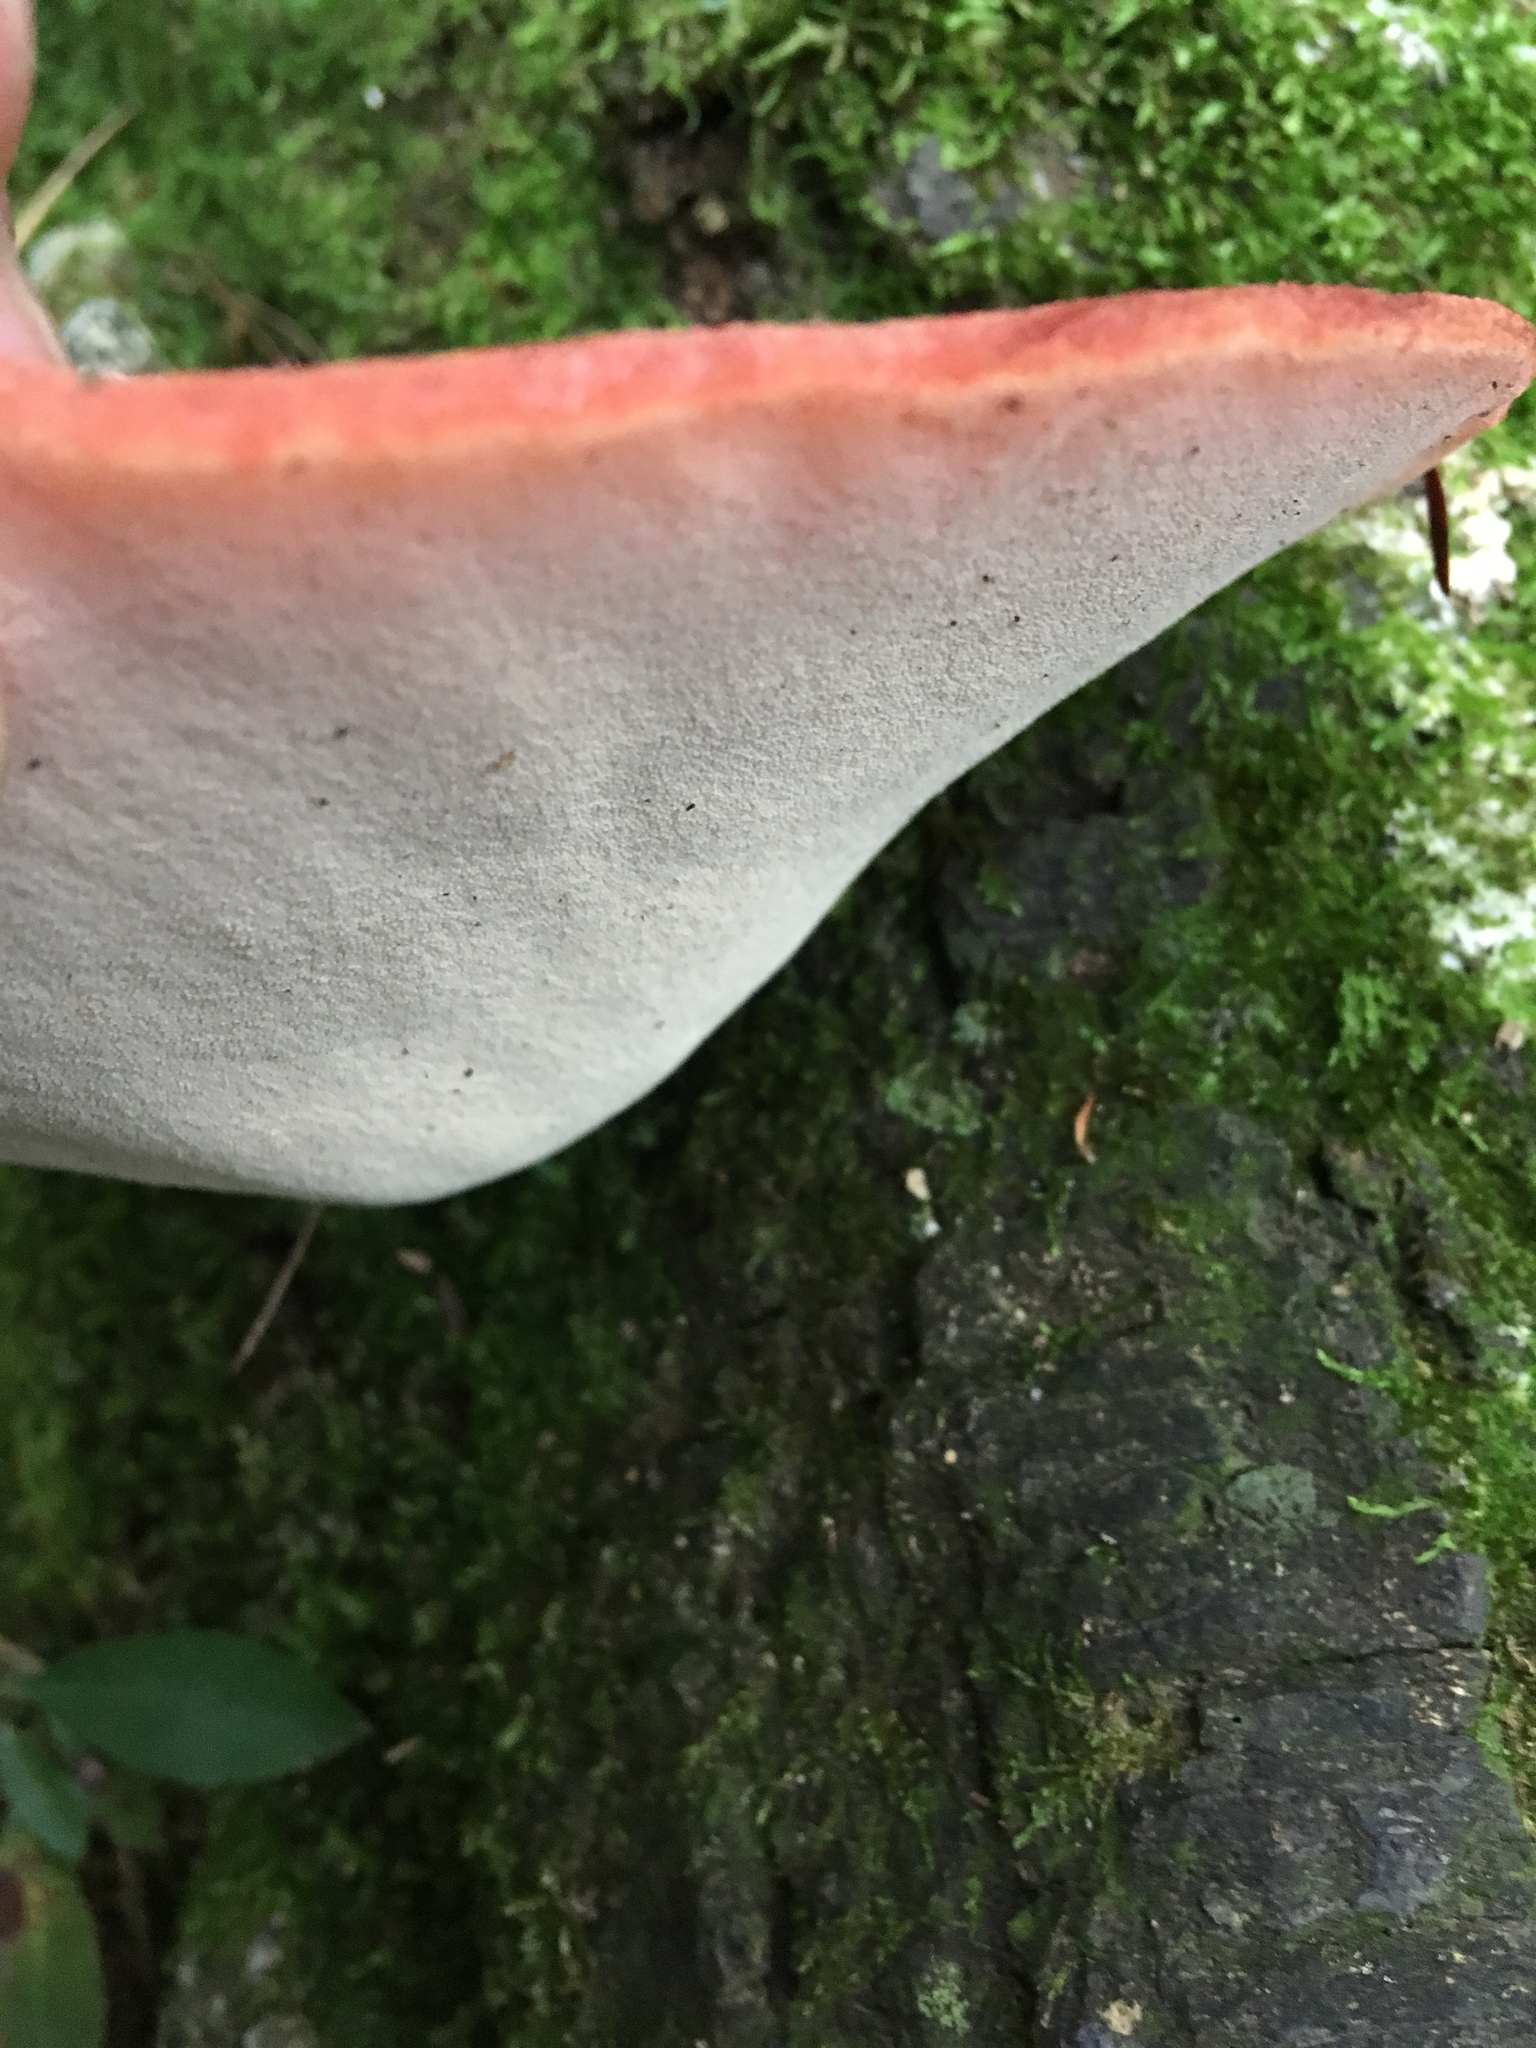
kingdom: Fungi
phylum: Basidiomycota
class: Agaricomycetes
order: Agaricales
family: Fistulinaceae
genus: Fistulina
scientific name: Fistulina hepatica
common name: Beef-steak fungus
